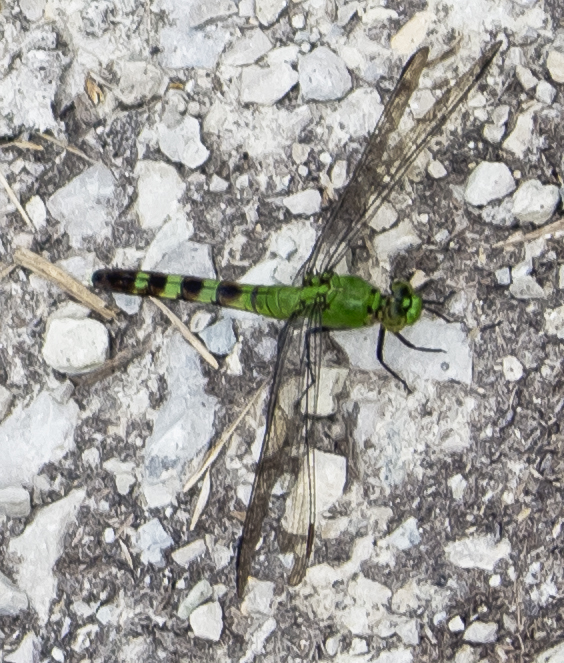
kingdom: Animalia
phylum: Arthropoda
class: Insecta
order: Odonata
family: Libellulidae
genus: Erythemis
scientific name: Erythemis simplicicollis
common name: Eastern pondhawk
